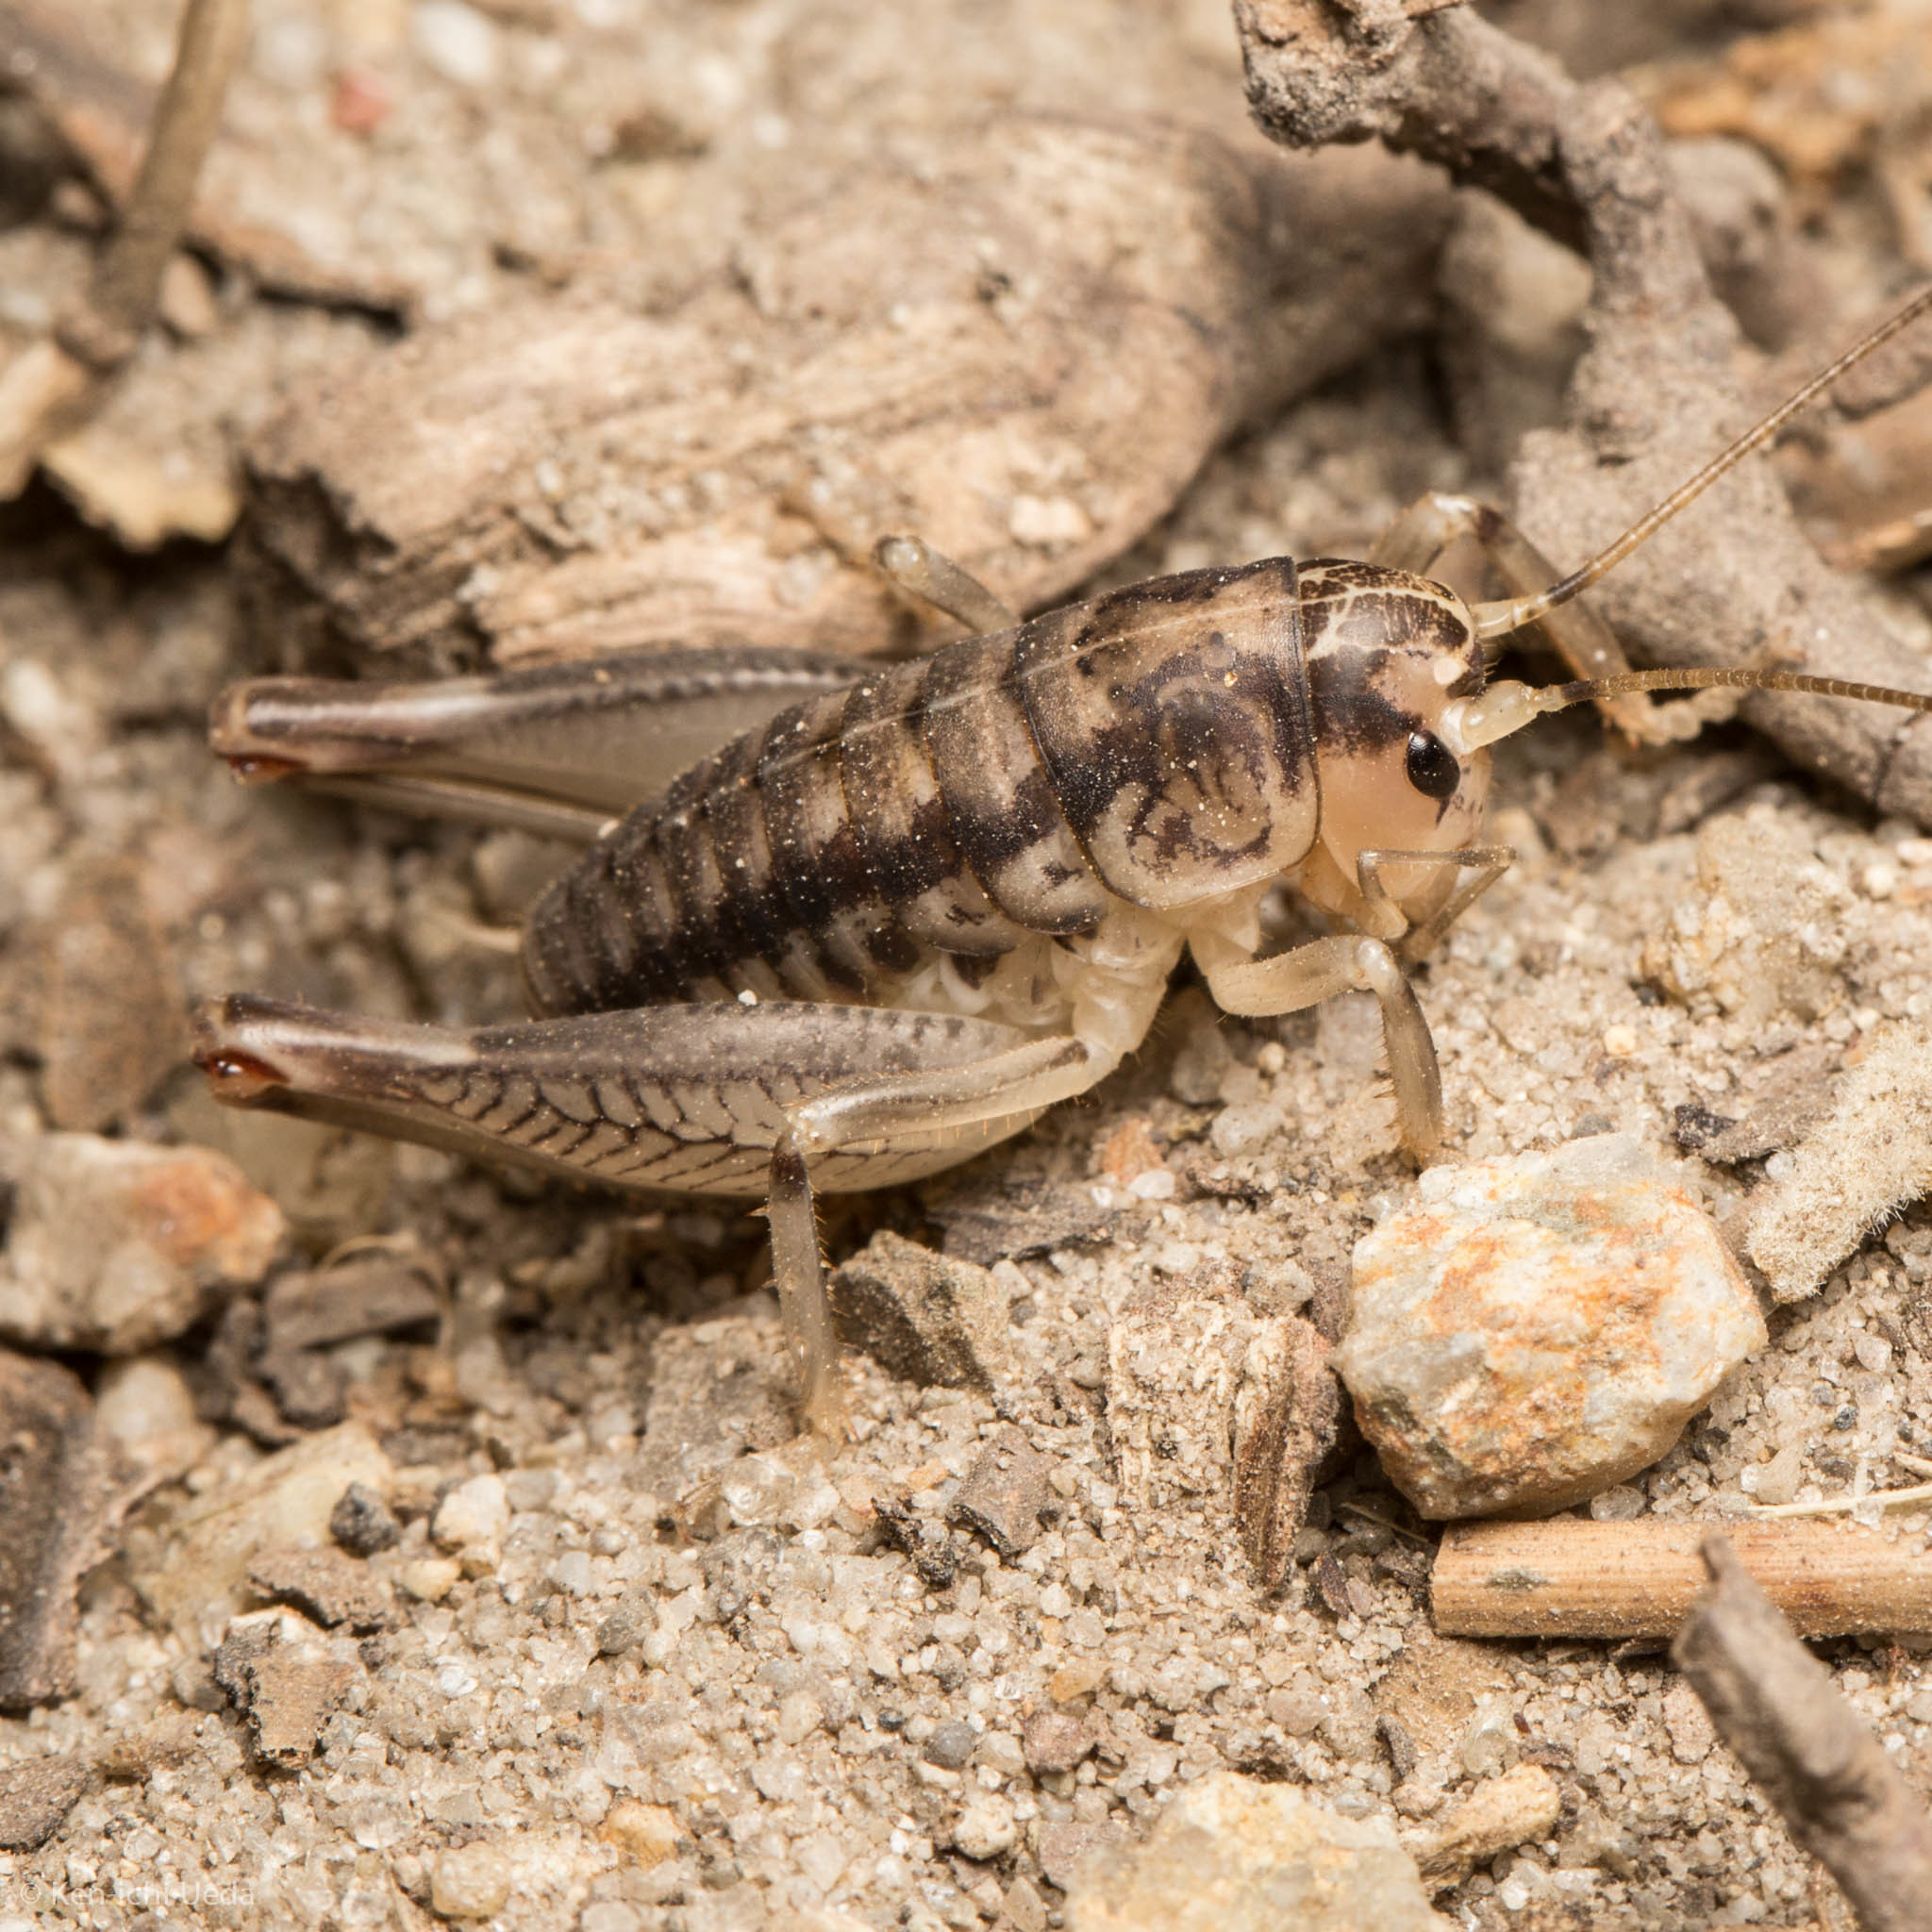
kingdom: Animalia
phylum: Arthropoda
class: Insecta
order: Orthoptera
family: Anostostomatidae
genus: Cnemotettix
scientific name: Cnemotettix bifasciatus
